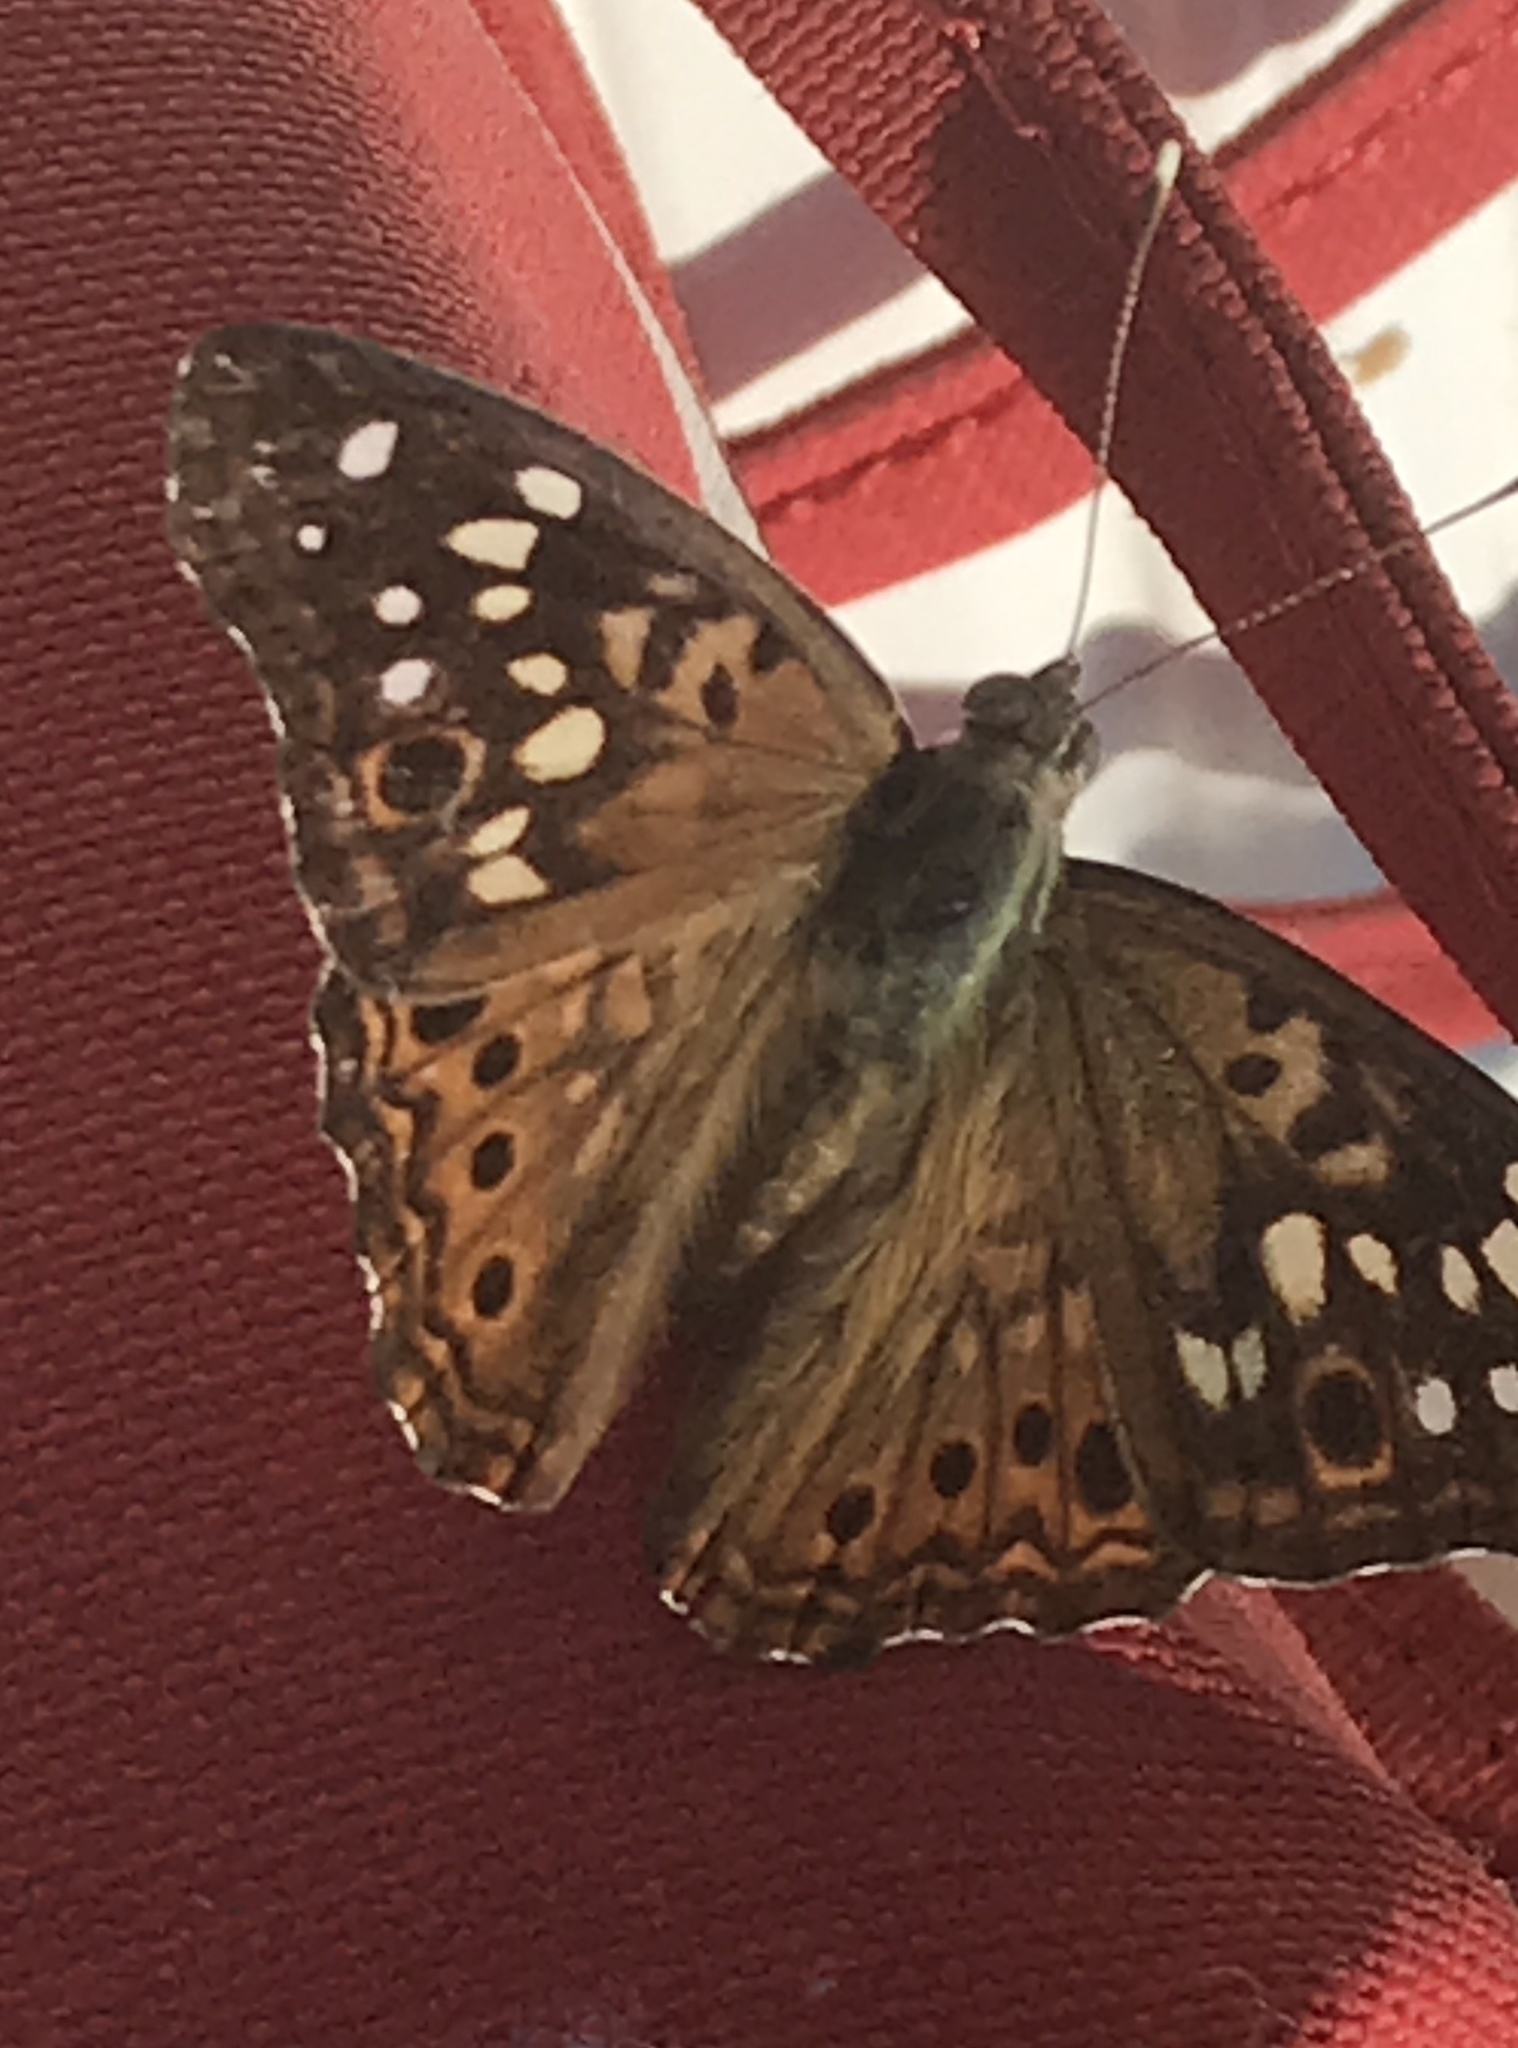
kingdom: Animalia
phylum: Arthropoda
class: Insecta
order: Lepidoptera
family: Nymphalidae
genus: Asterocampa
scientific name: Asterocampa celtis
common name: Hackberry emperor
